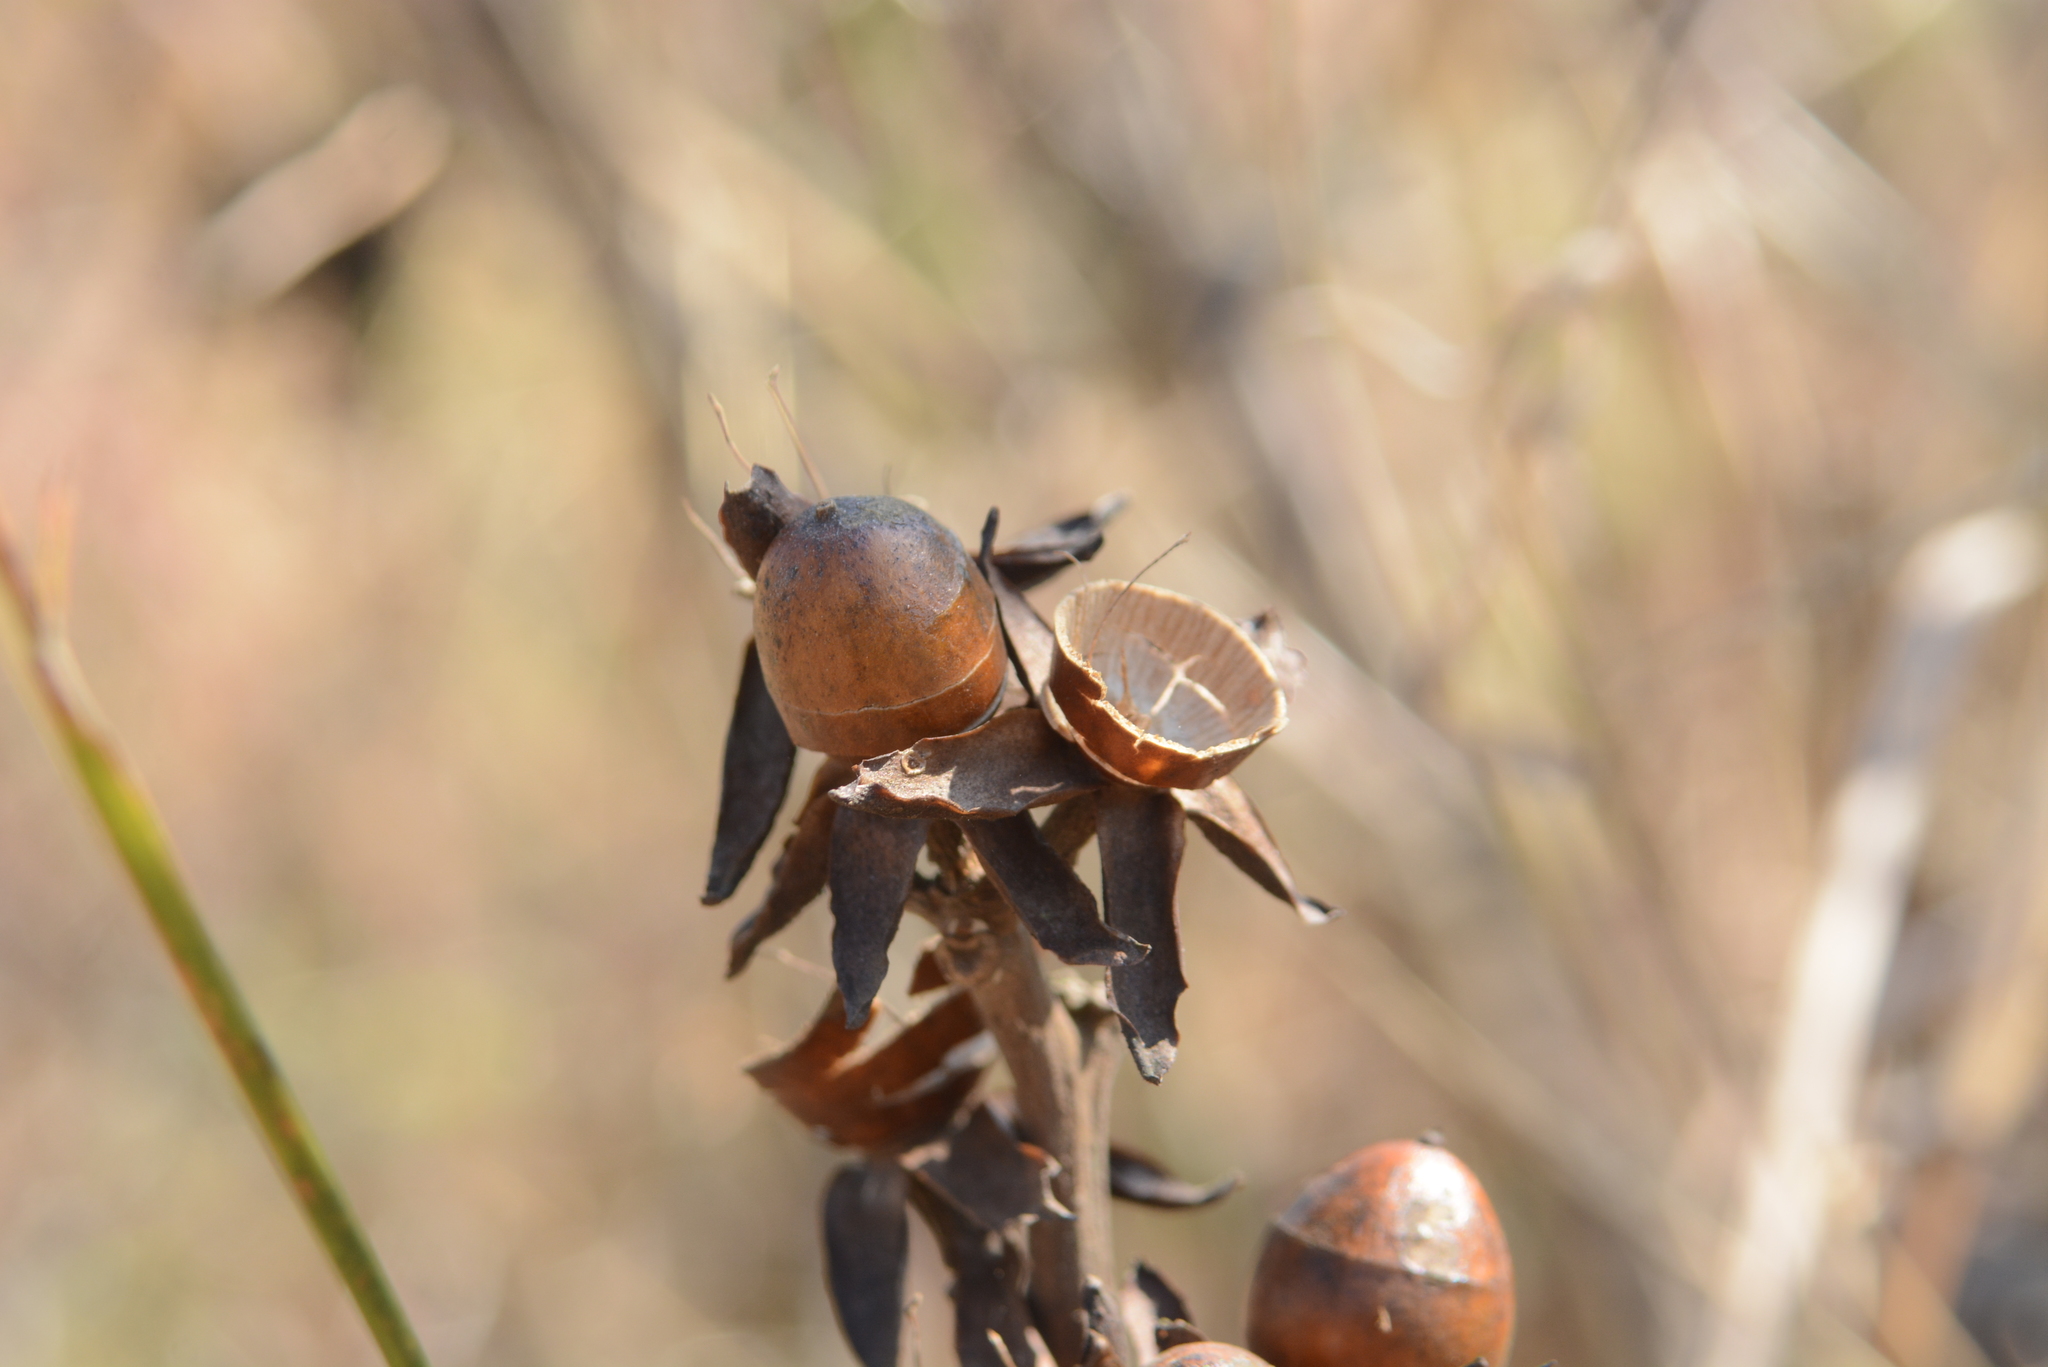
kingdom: Plantae
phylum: Tracheophyta
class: Magnoliopsida
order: Solanales
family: Convolvulaceae
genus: Rivea
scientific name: Rivea ornata
